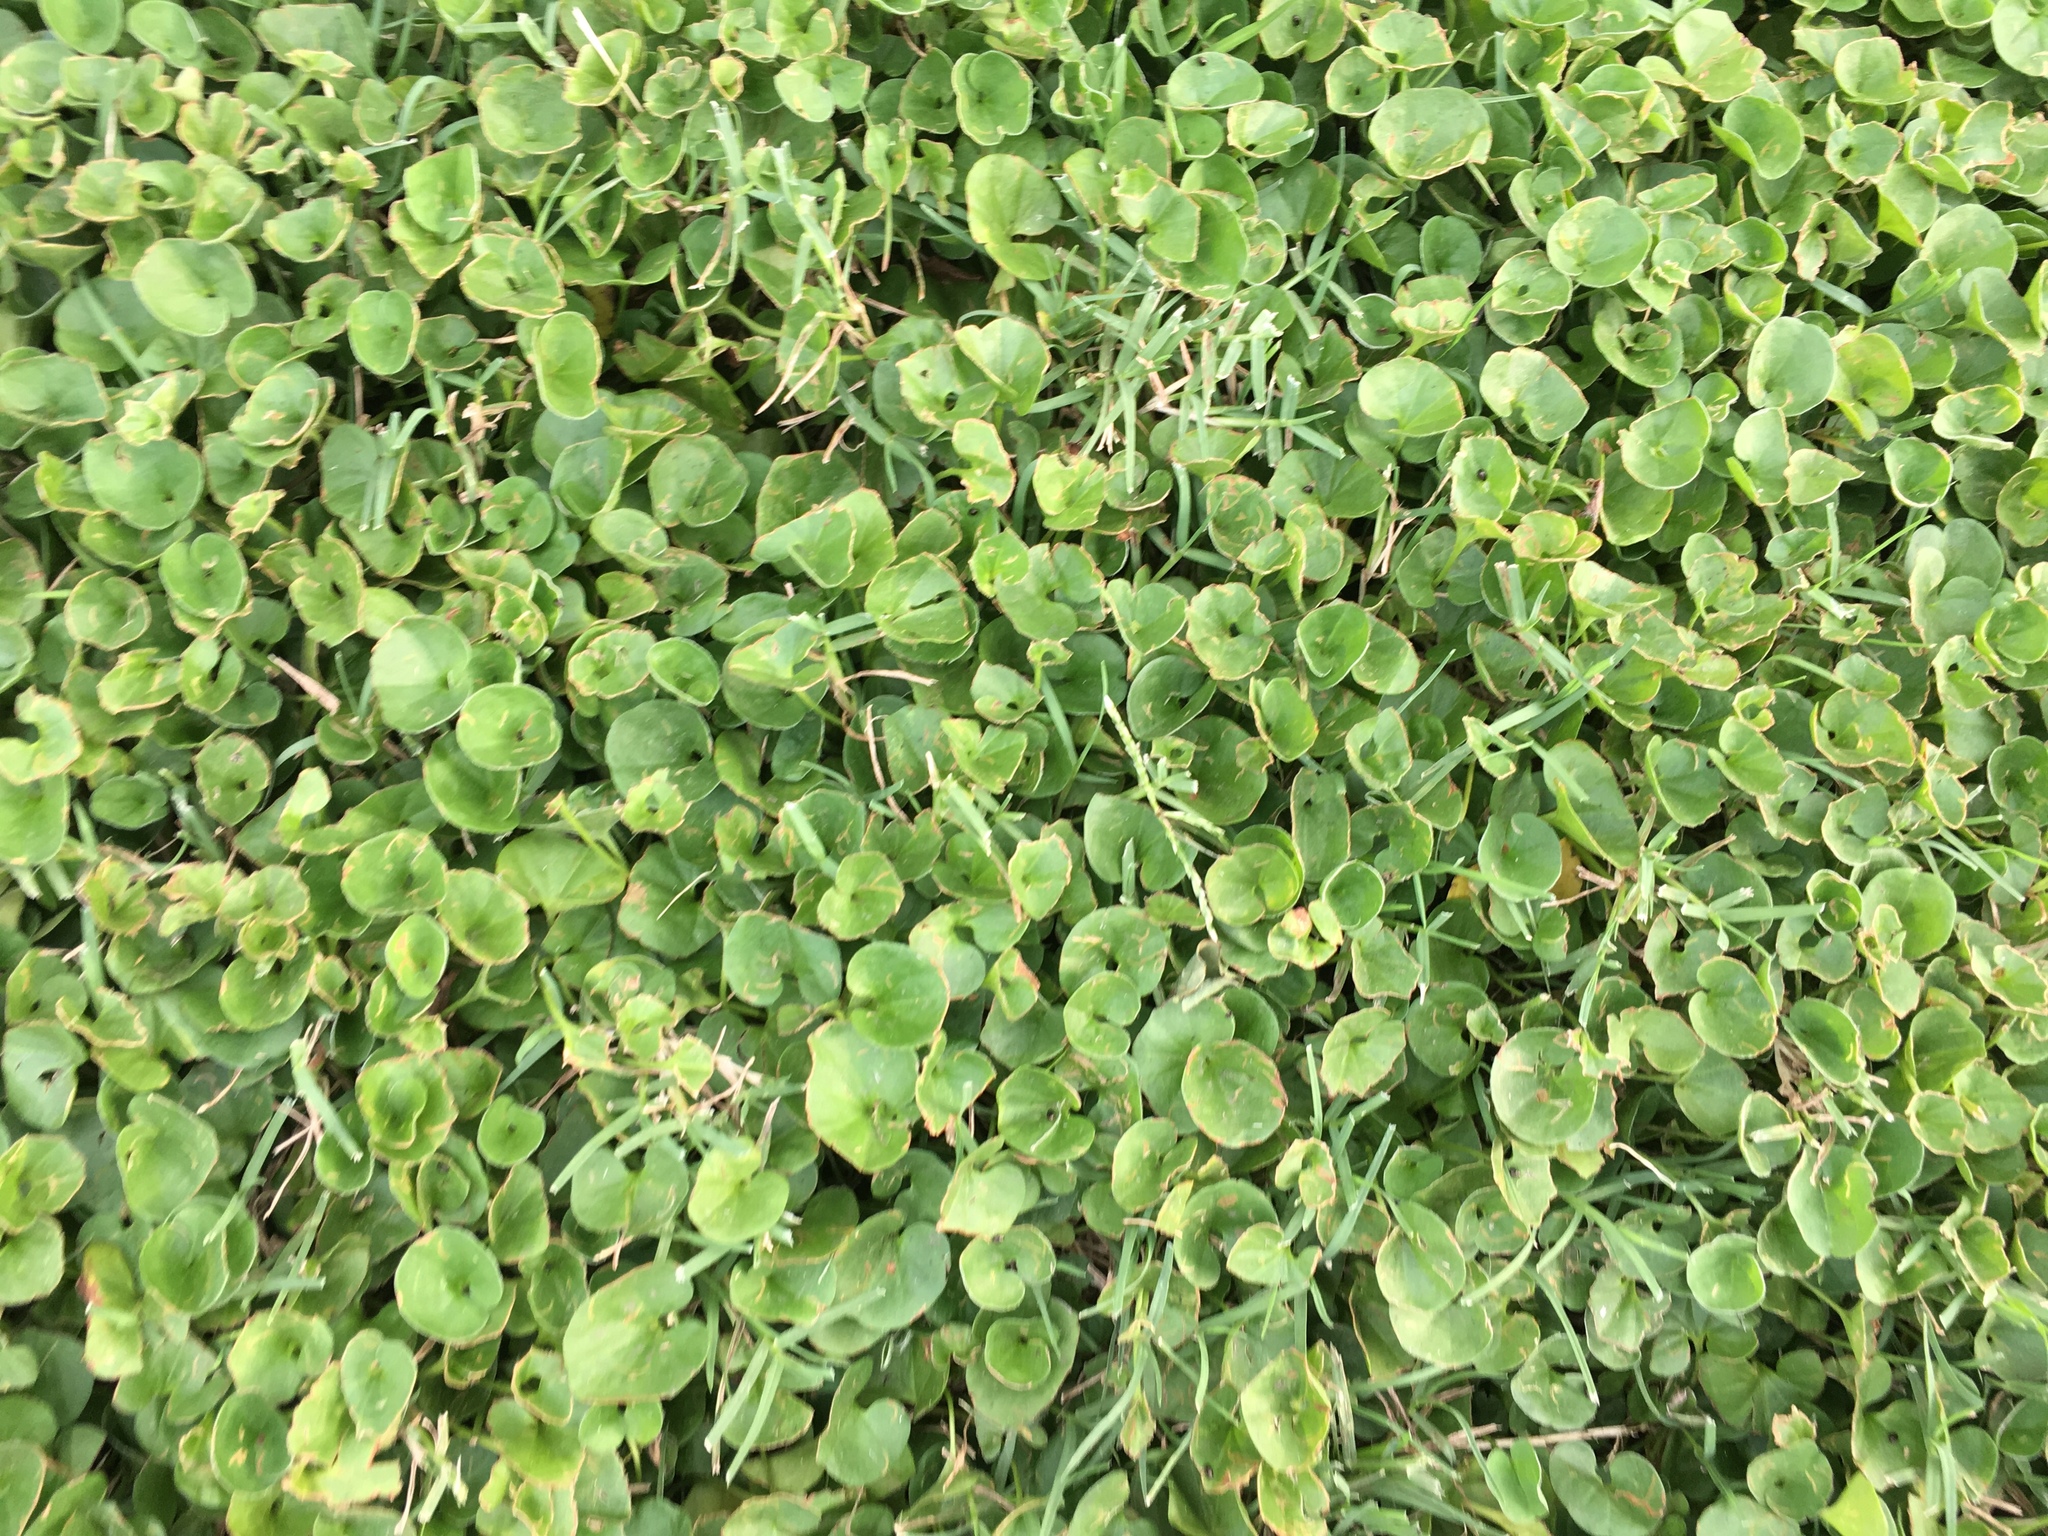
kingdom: Plantae
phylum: Tracheophyta
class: Magnoliopsida
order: Solanales
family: Convolvulaceae
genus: Dichondra
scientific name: Dichondra micrantha
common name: Kidneyweed
